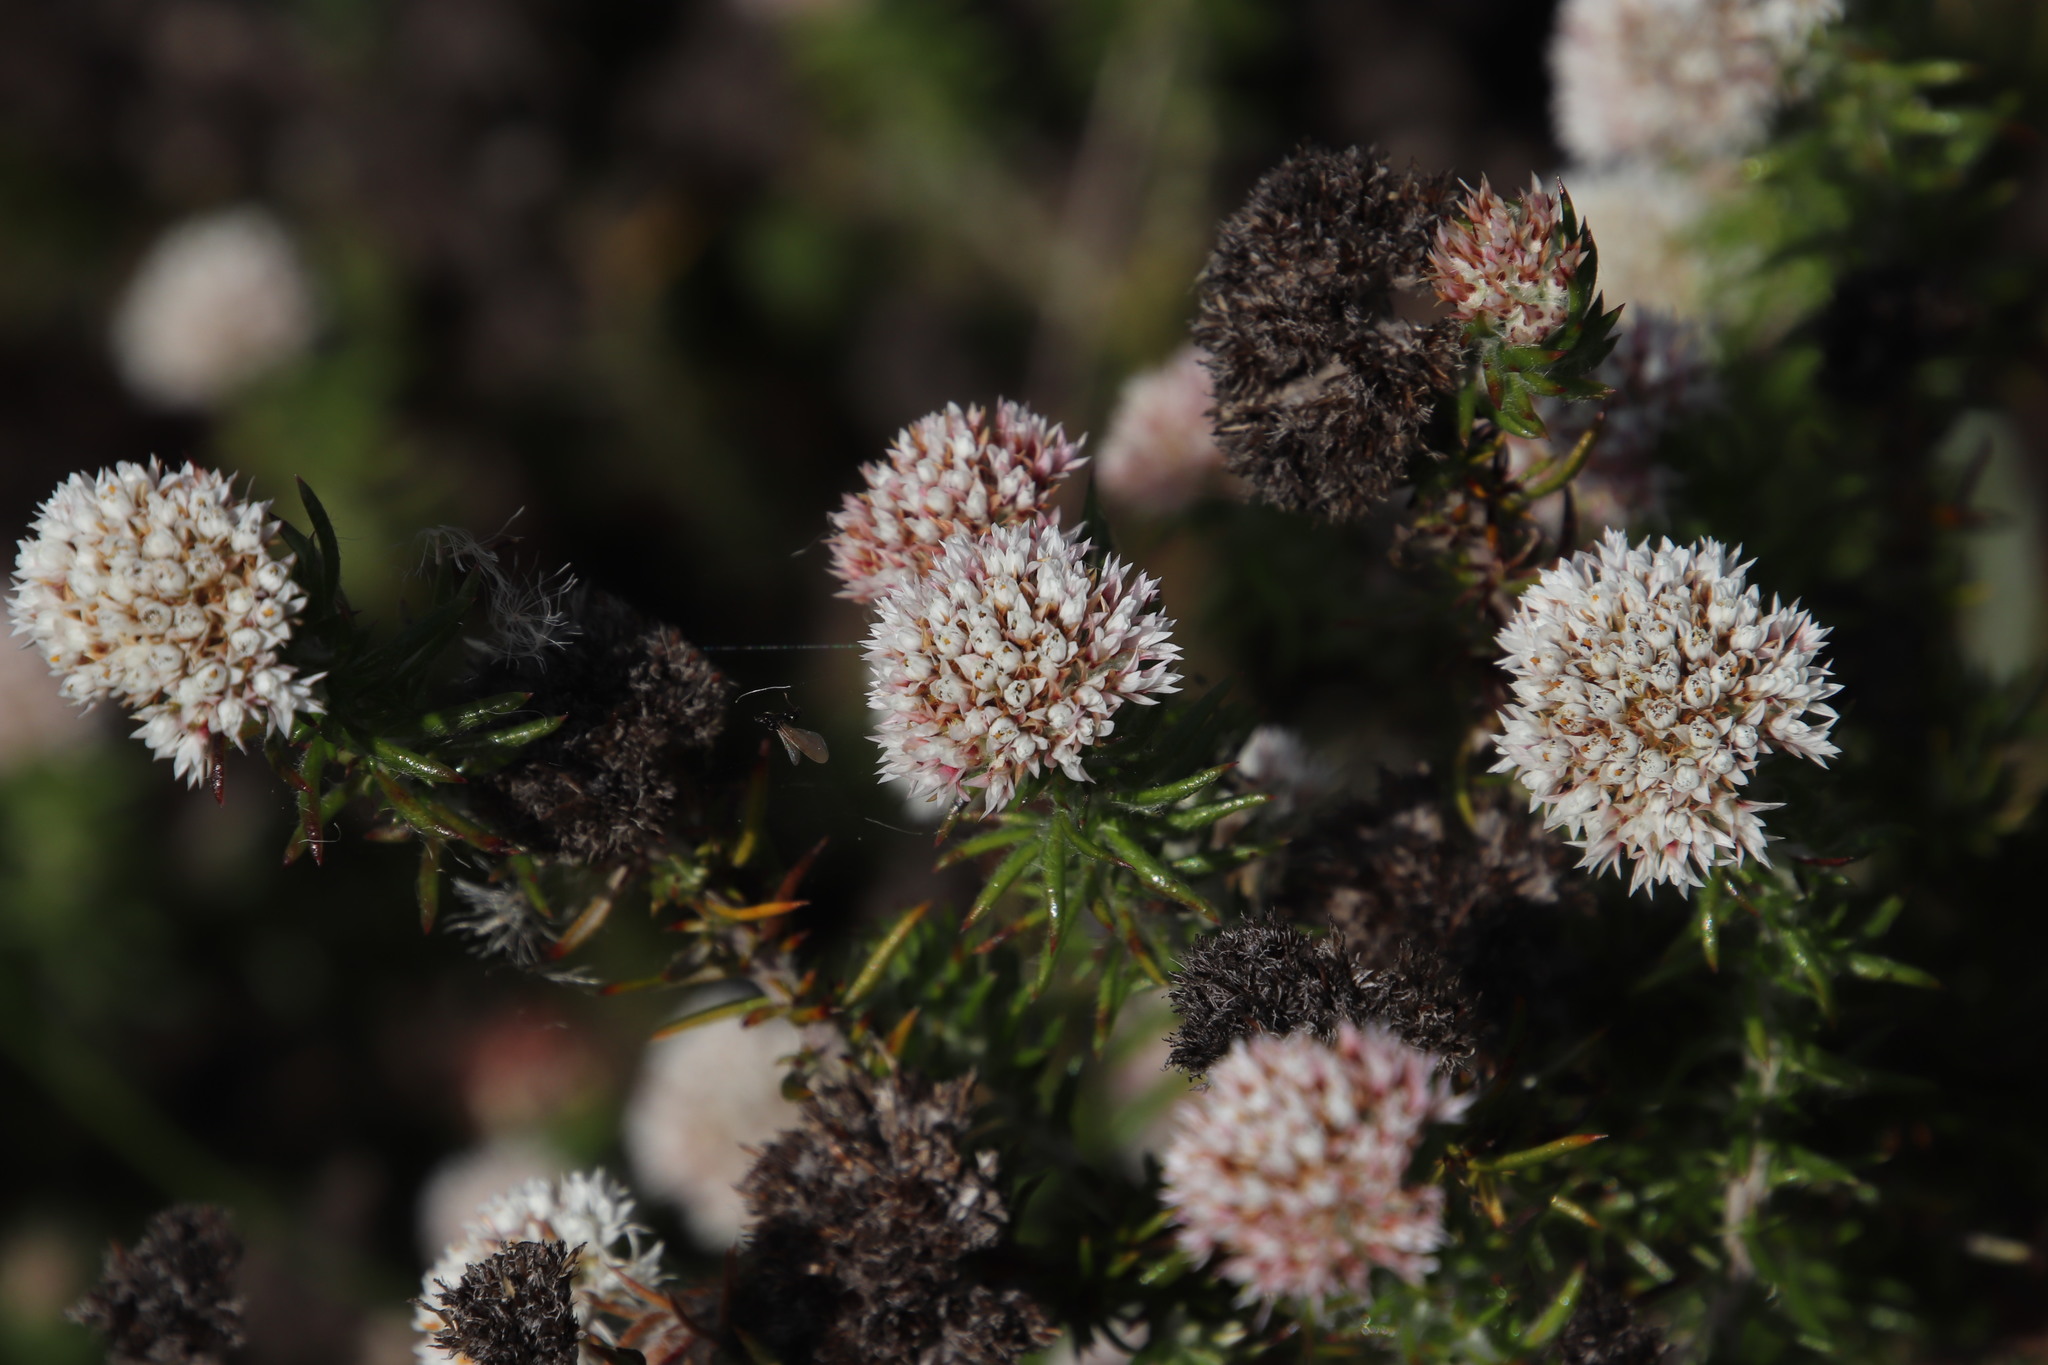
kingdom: Plantae
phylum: Tracheophyta
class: Magnoliopsida
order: Asterales
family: Asteraceae
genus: Metalasia
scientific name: Metalasia pulchella
